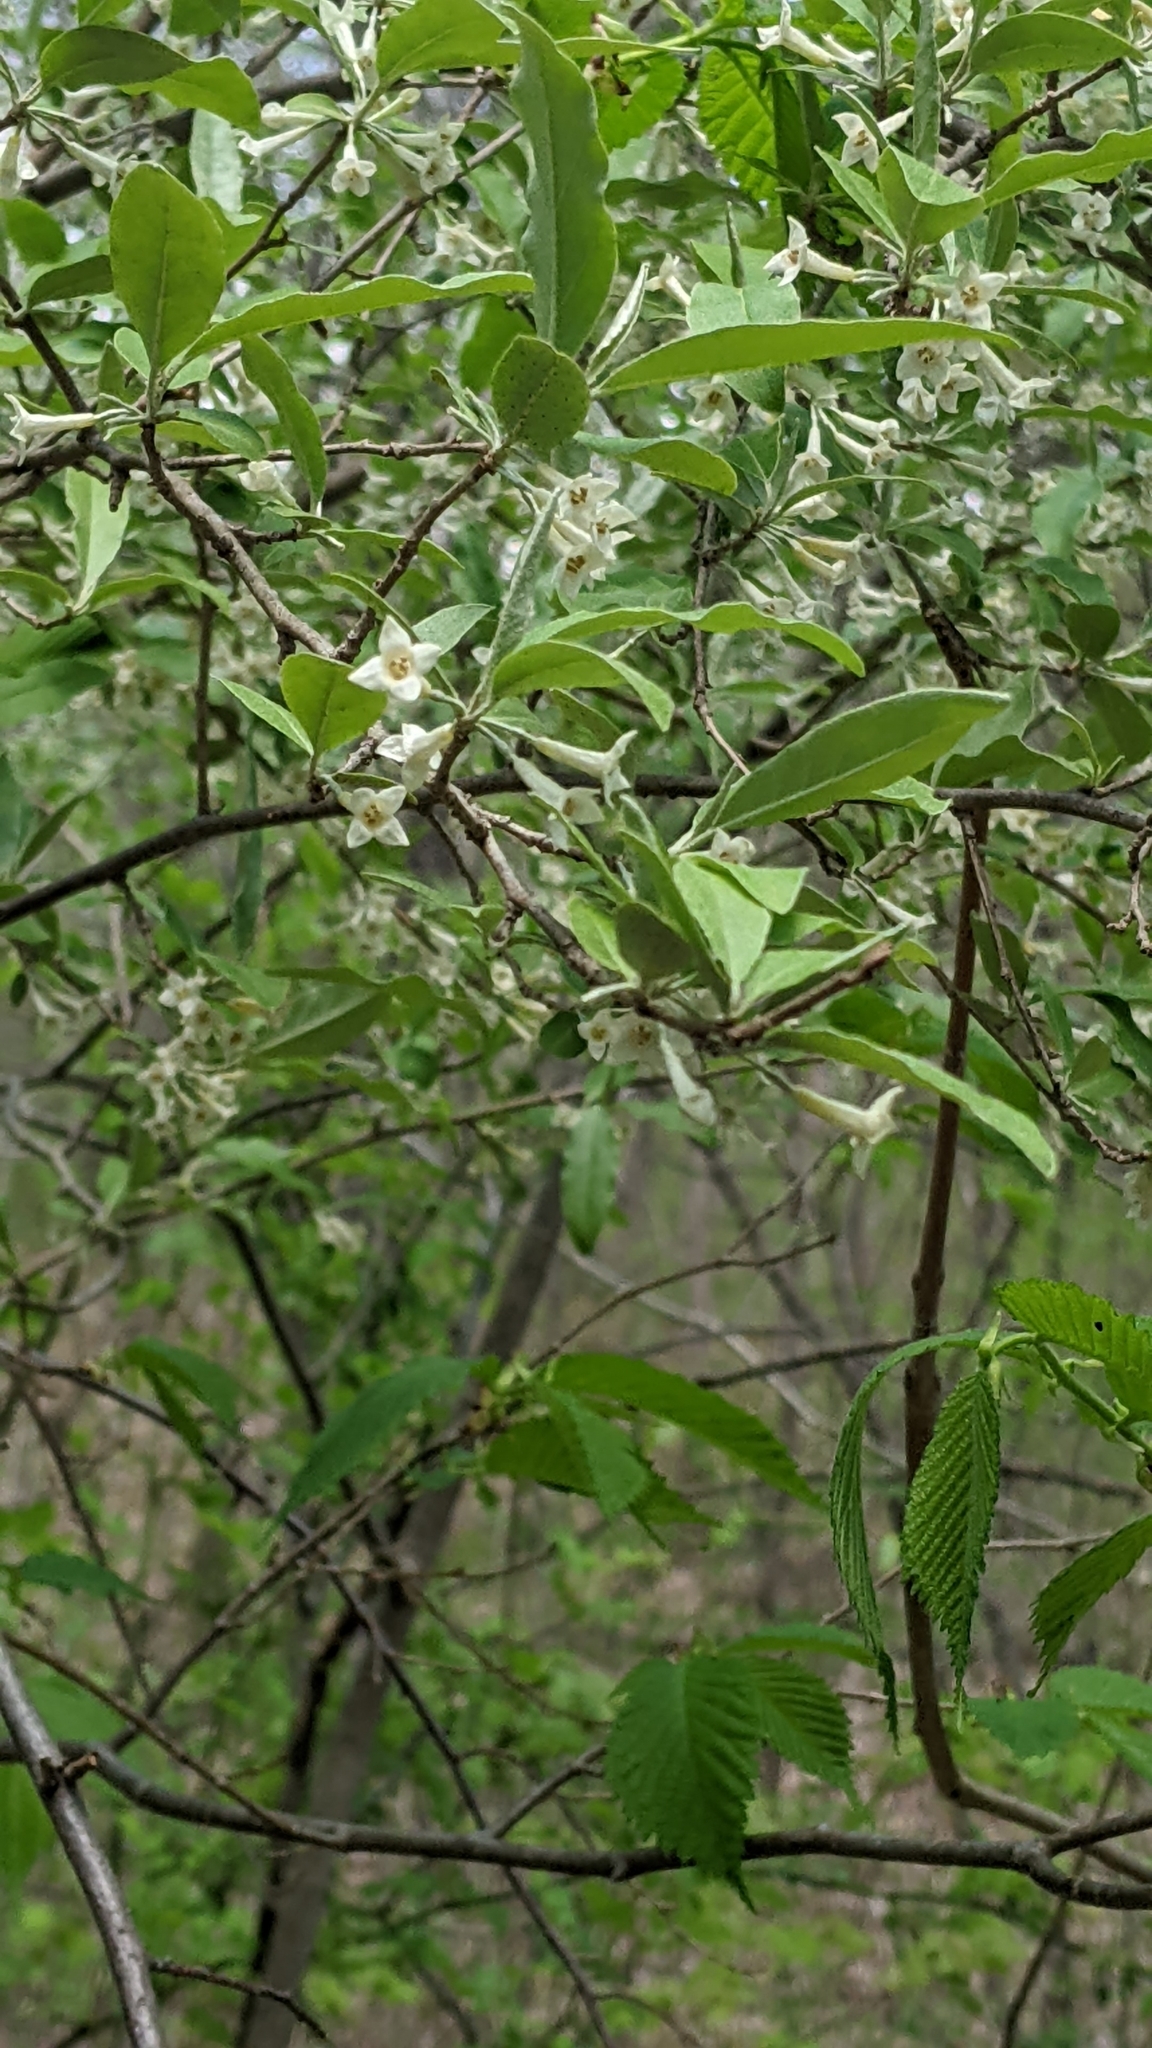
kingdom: Plantae
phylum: Tracheophyta
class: Magnoliopsida
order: Rosales
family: Elaeagnaceae
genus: Elaeagnus
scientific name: Elaeagnus umbellata
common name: Autumn olive
